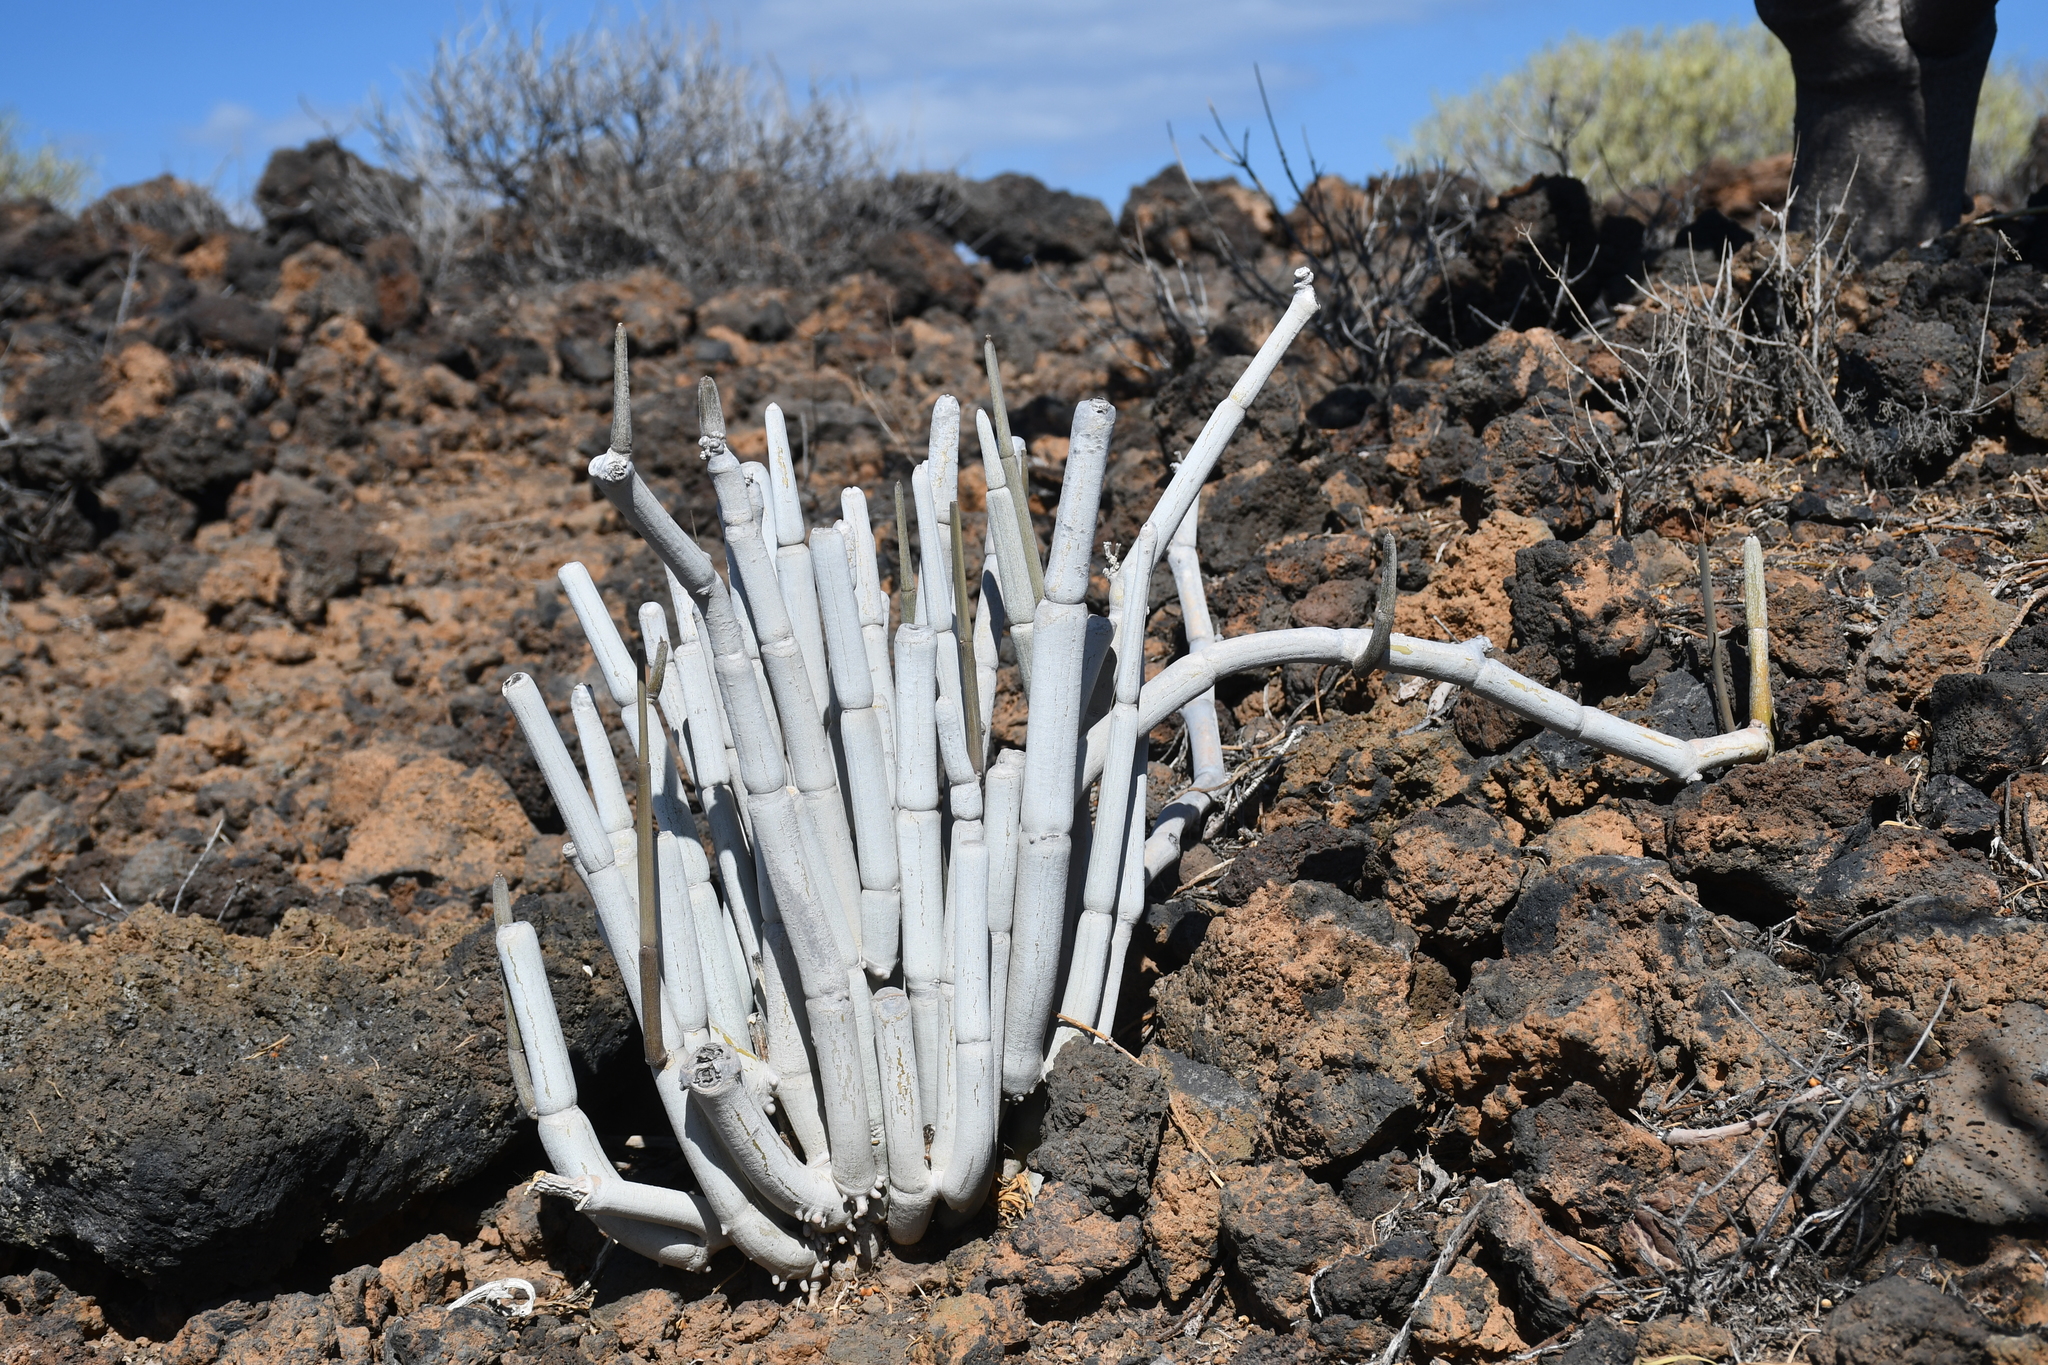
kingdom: Plantae
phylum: Tracheophyta
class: Magnoliopsida
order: Gentianales
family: Apocynaceae
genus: Ceropegia
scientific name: Ceropegia fusca
